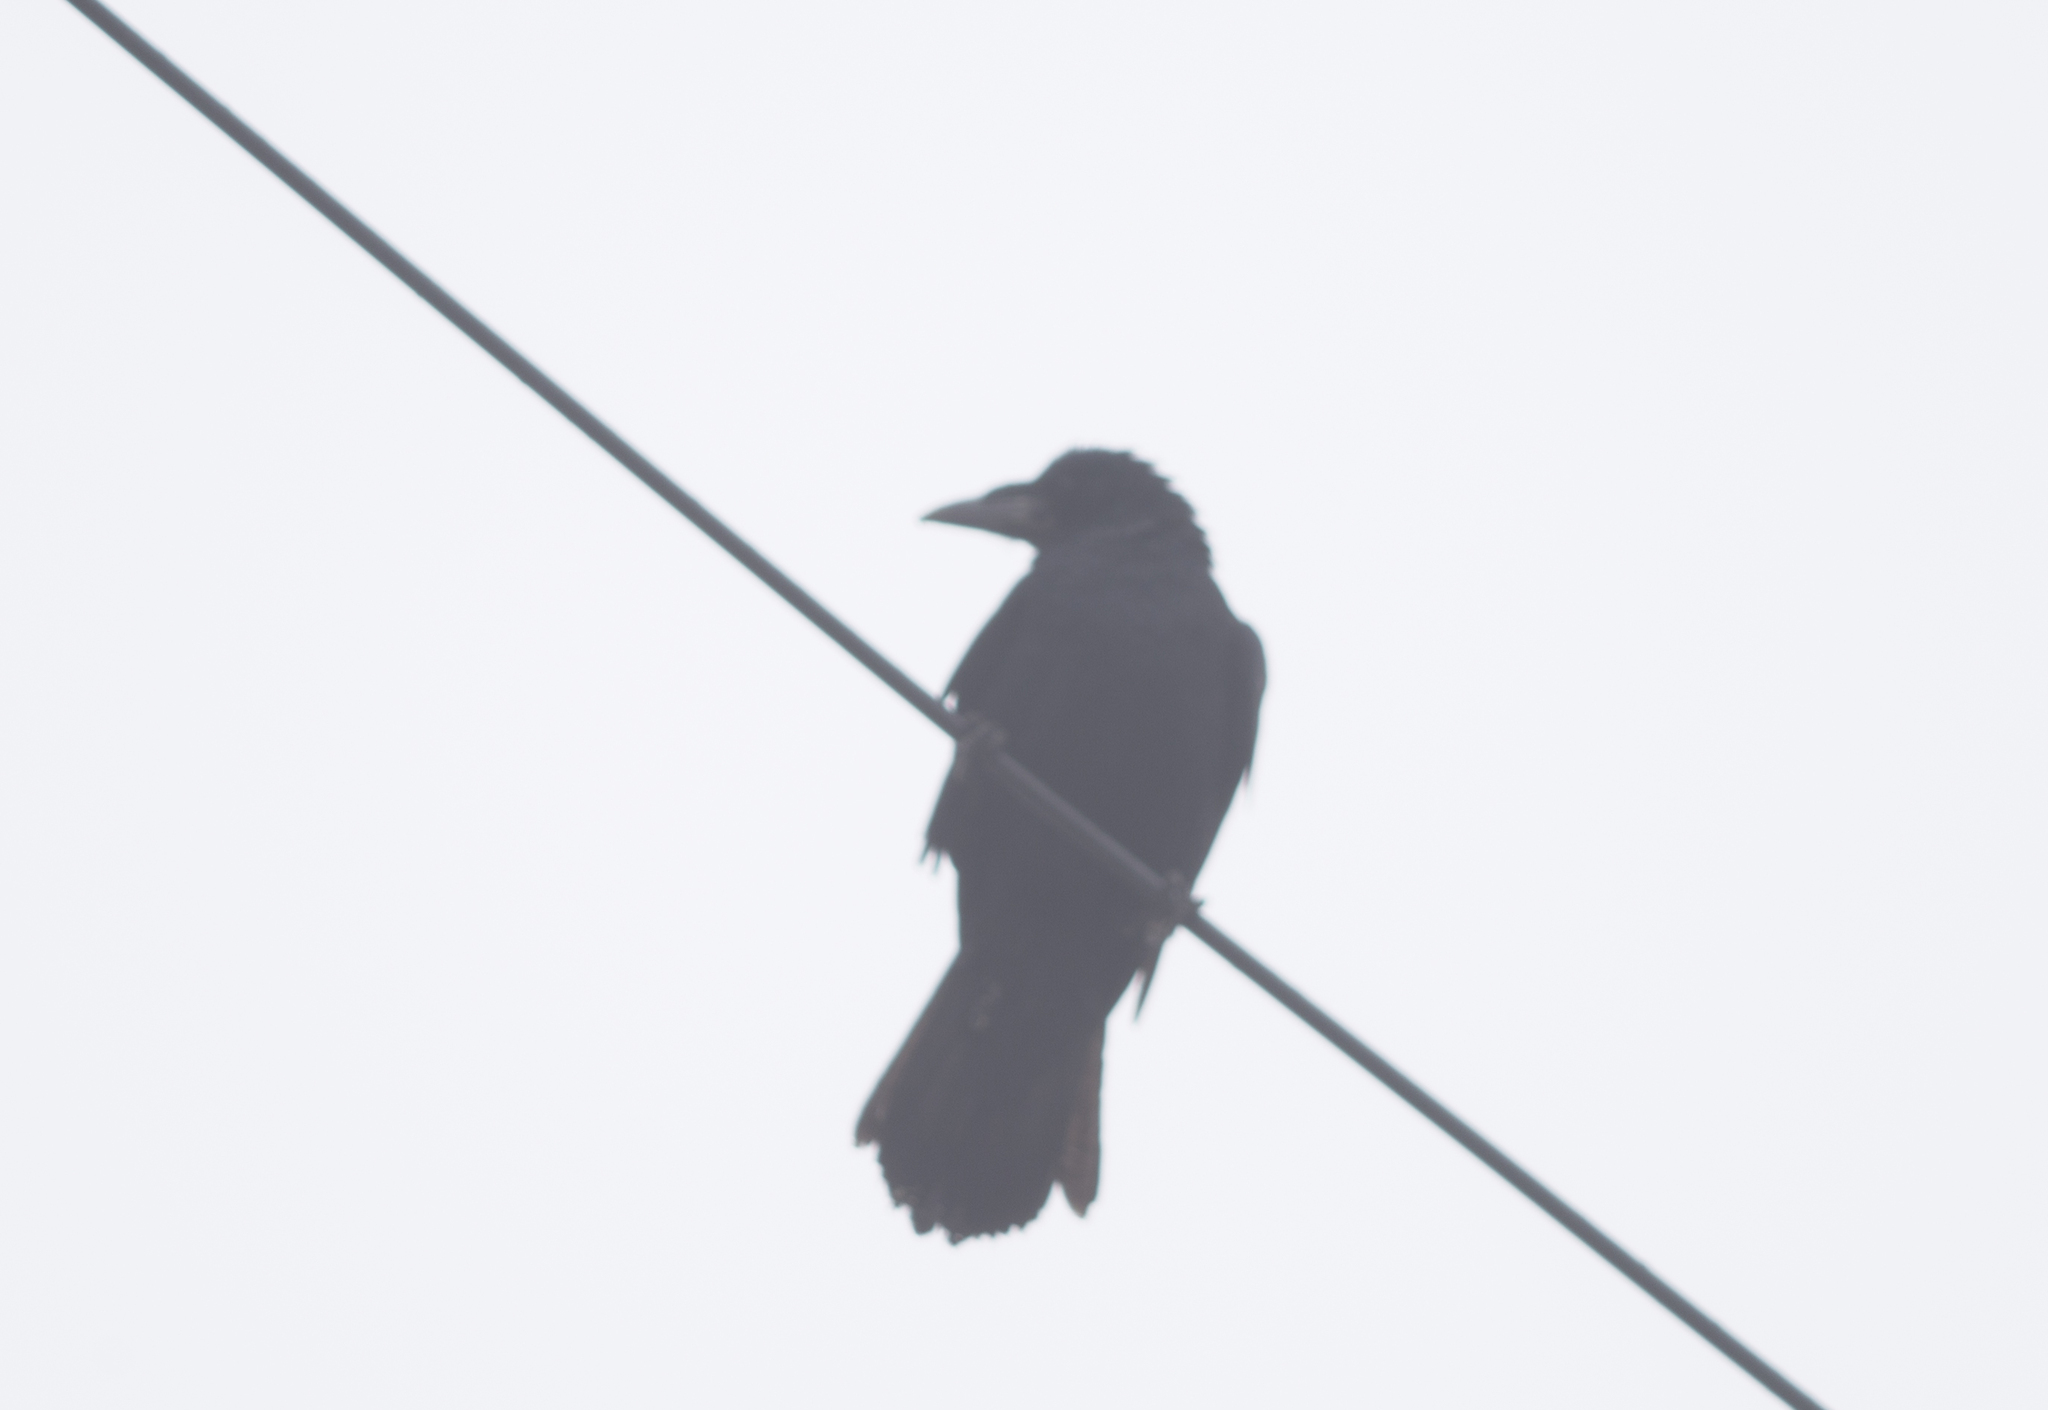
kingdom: Animalia
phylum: Chordata
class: Aves
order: Passeriformes
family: Corvidae
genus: Corvus
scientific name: Corvus frugilegus
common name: Rook
